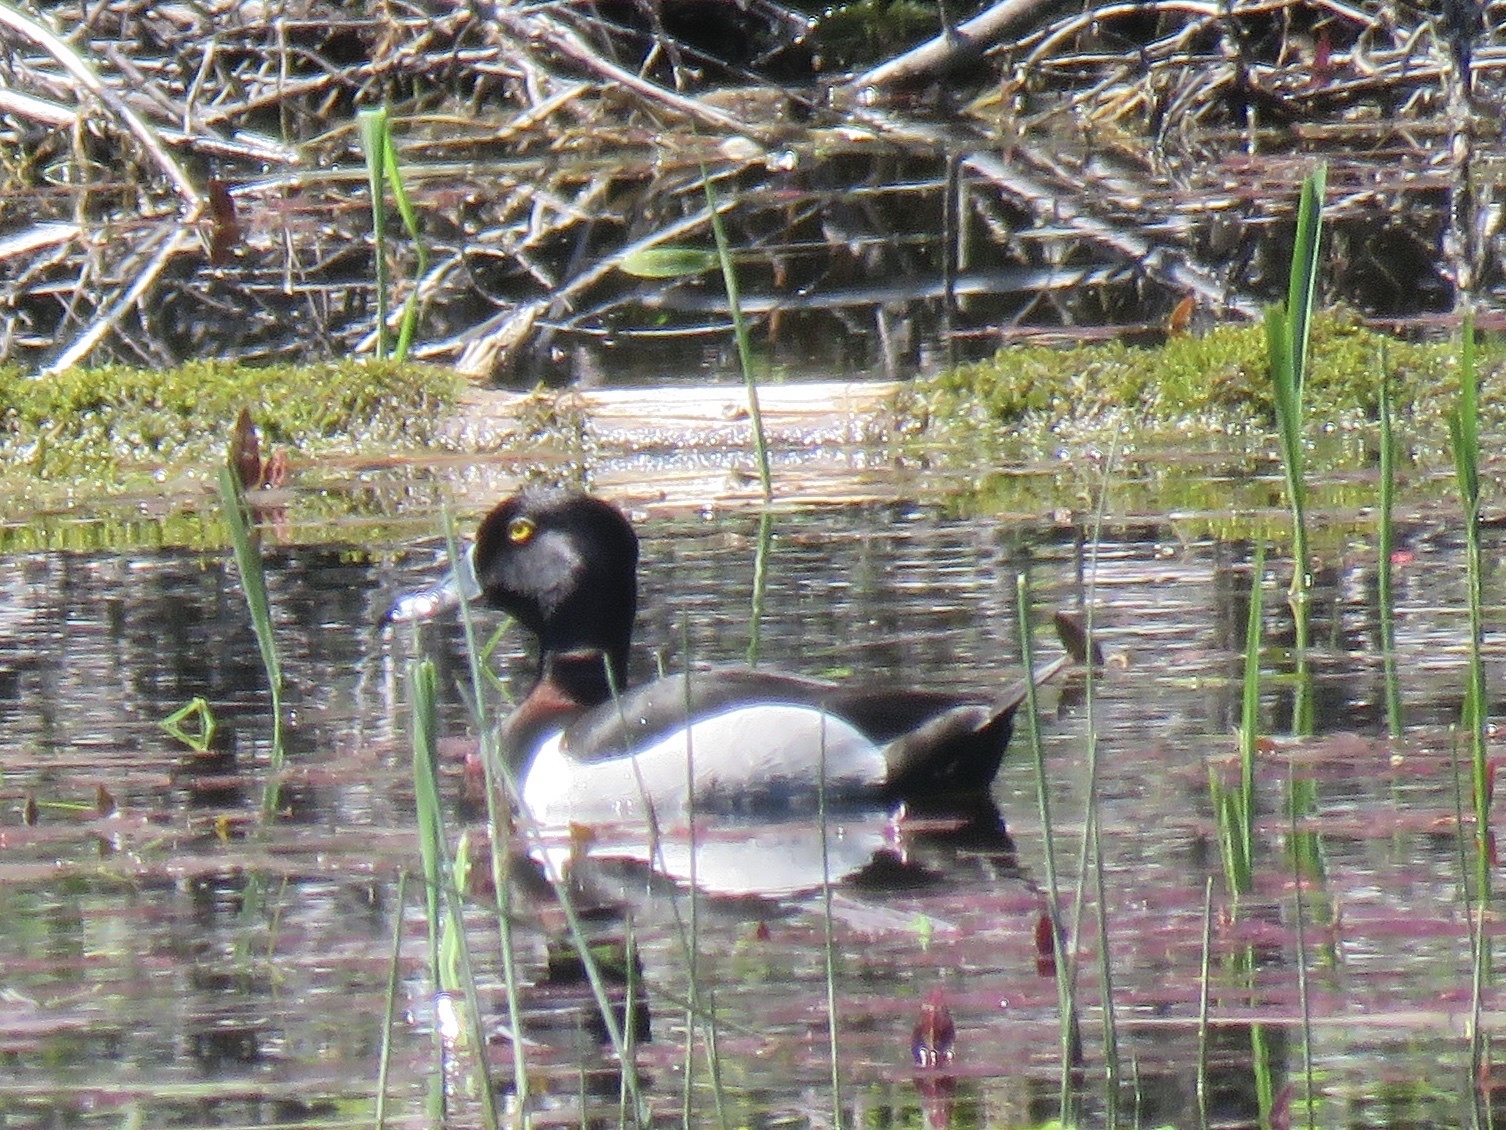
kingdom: Animalia
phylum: Chordata
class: Aves
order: Anseriformes
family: Anatidae
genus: Aythya
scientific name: Aythya collaris
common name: Ring-necked duck
